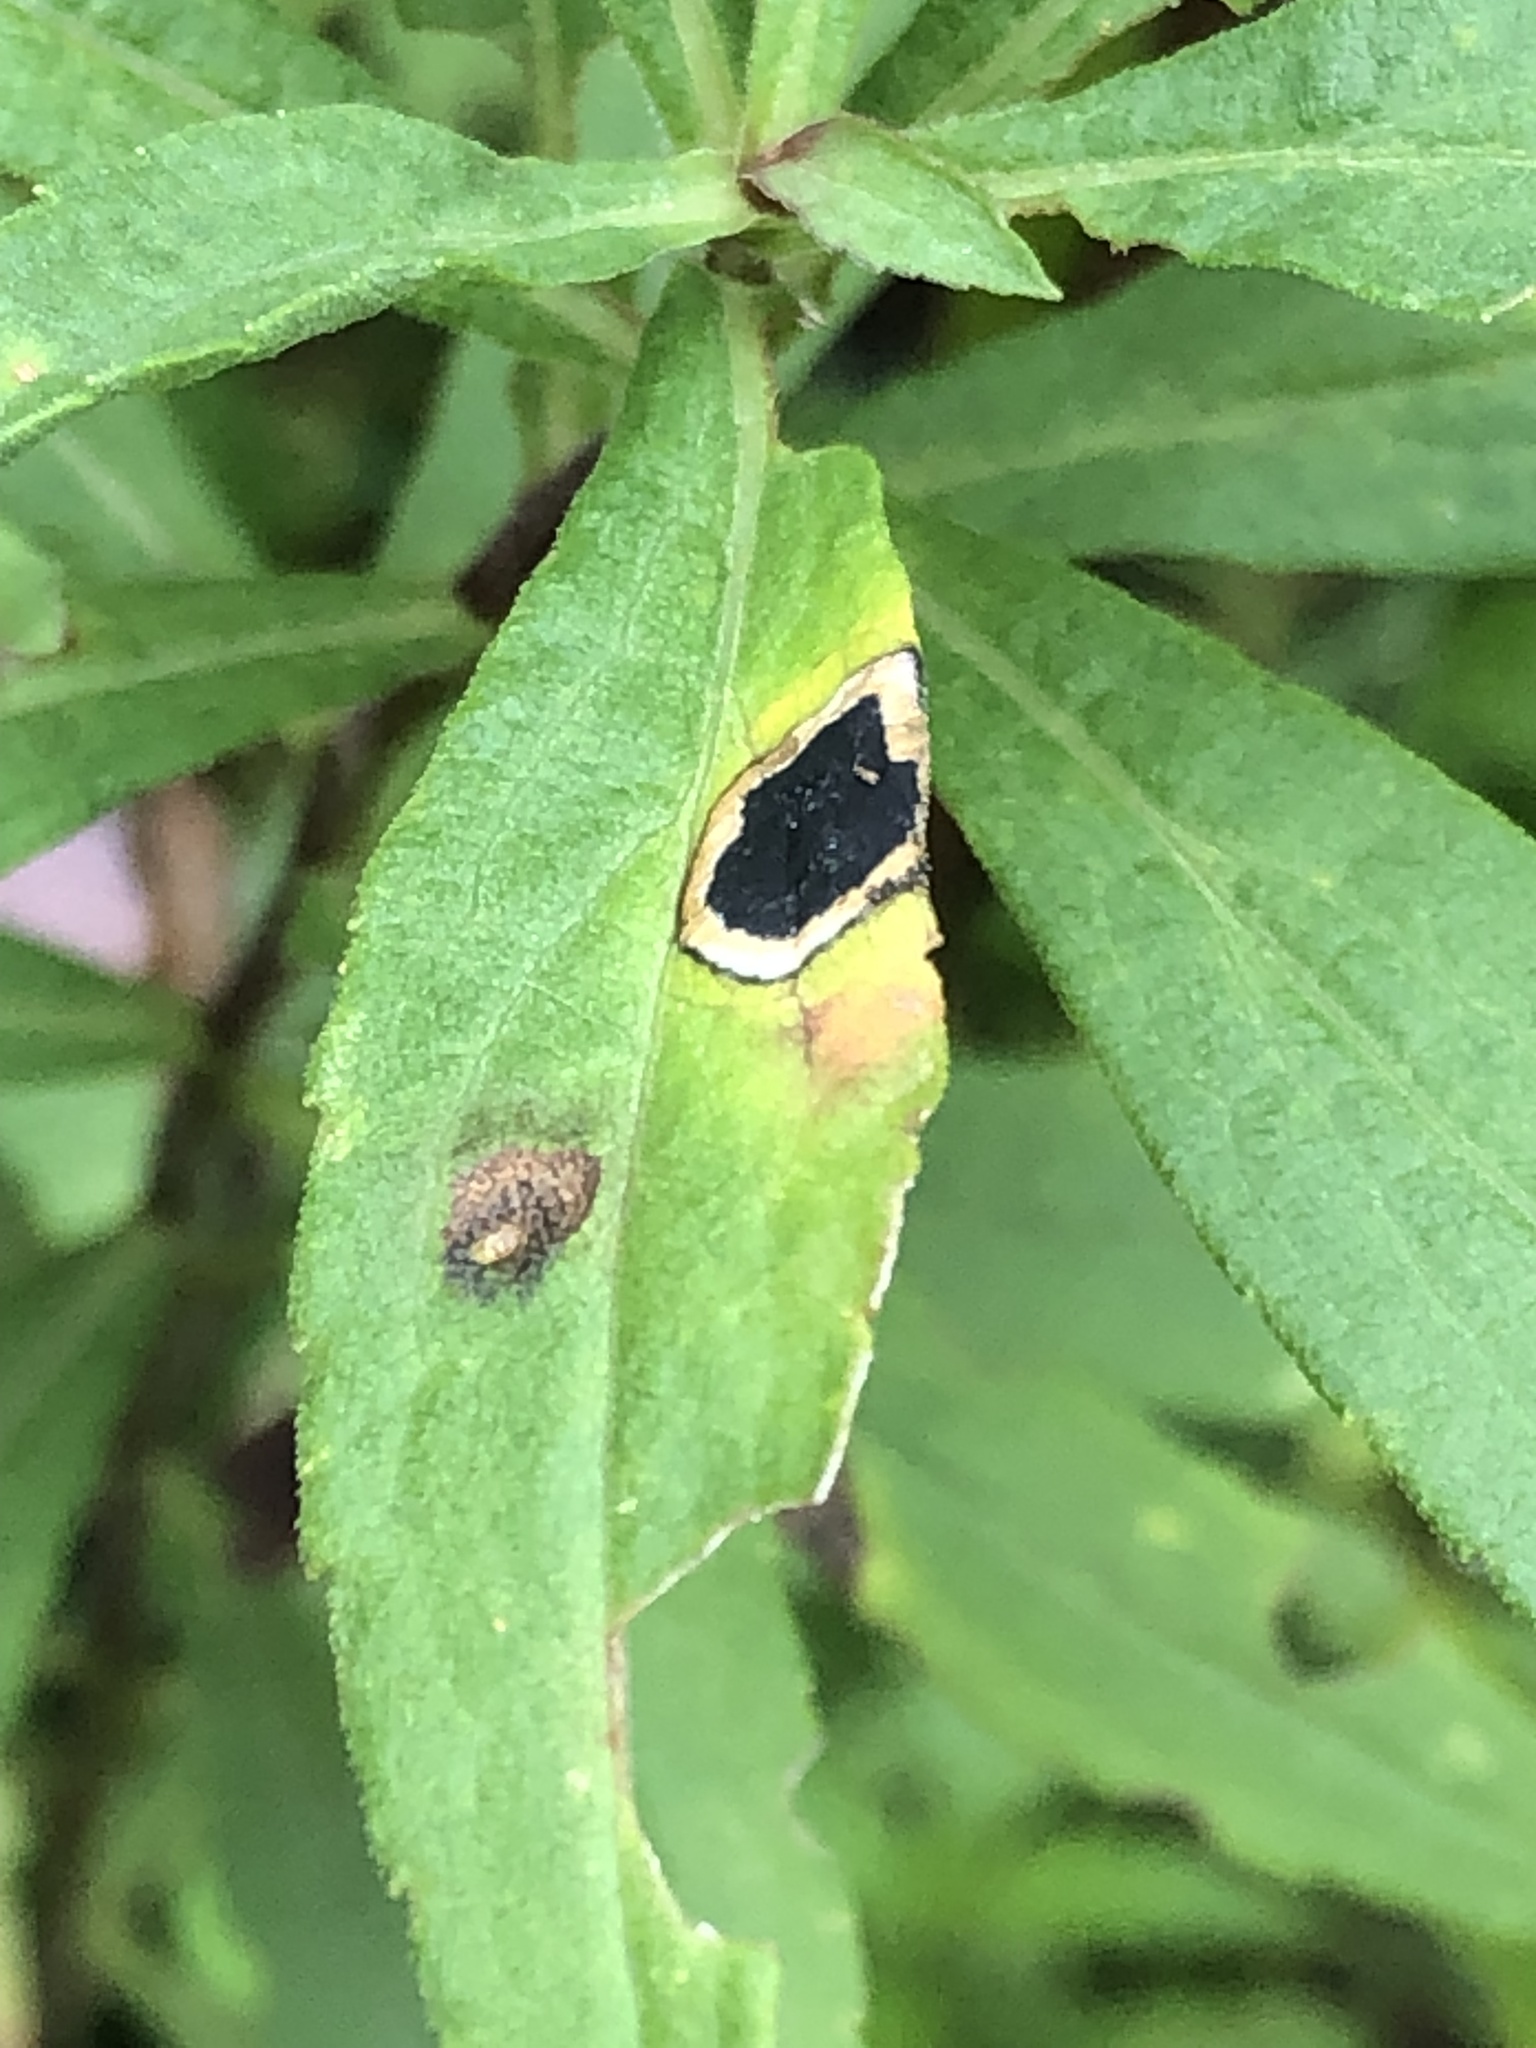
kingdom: Animalia
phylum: Arthropoda
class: Insecta
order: Diptera
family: Cecidomyiidae
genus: Asteromyia
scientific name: Asteromyia carbonifera
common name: Carbonifera goldenrod gall midge
